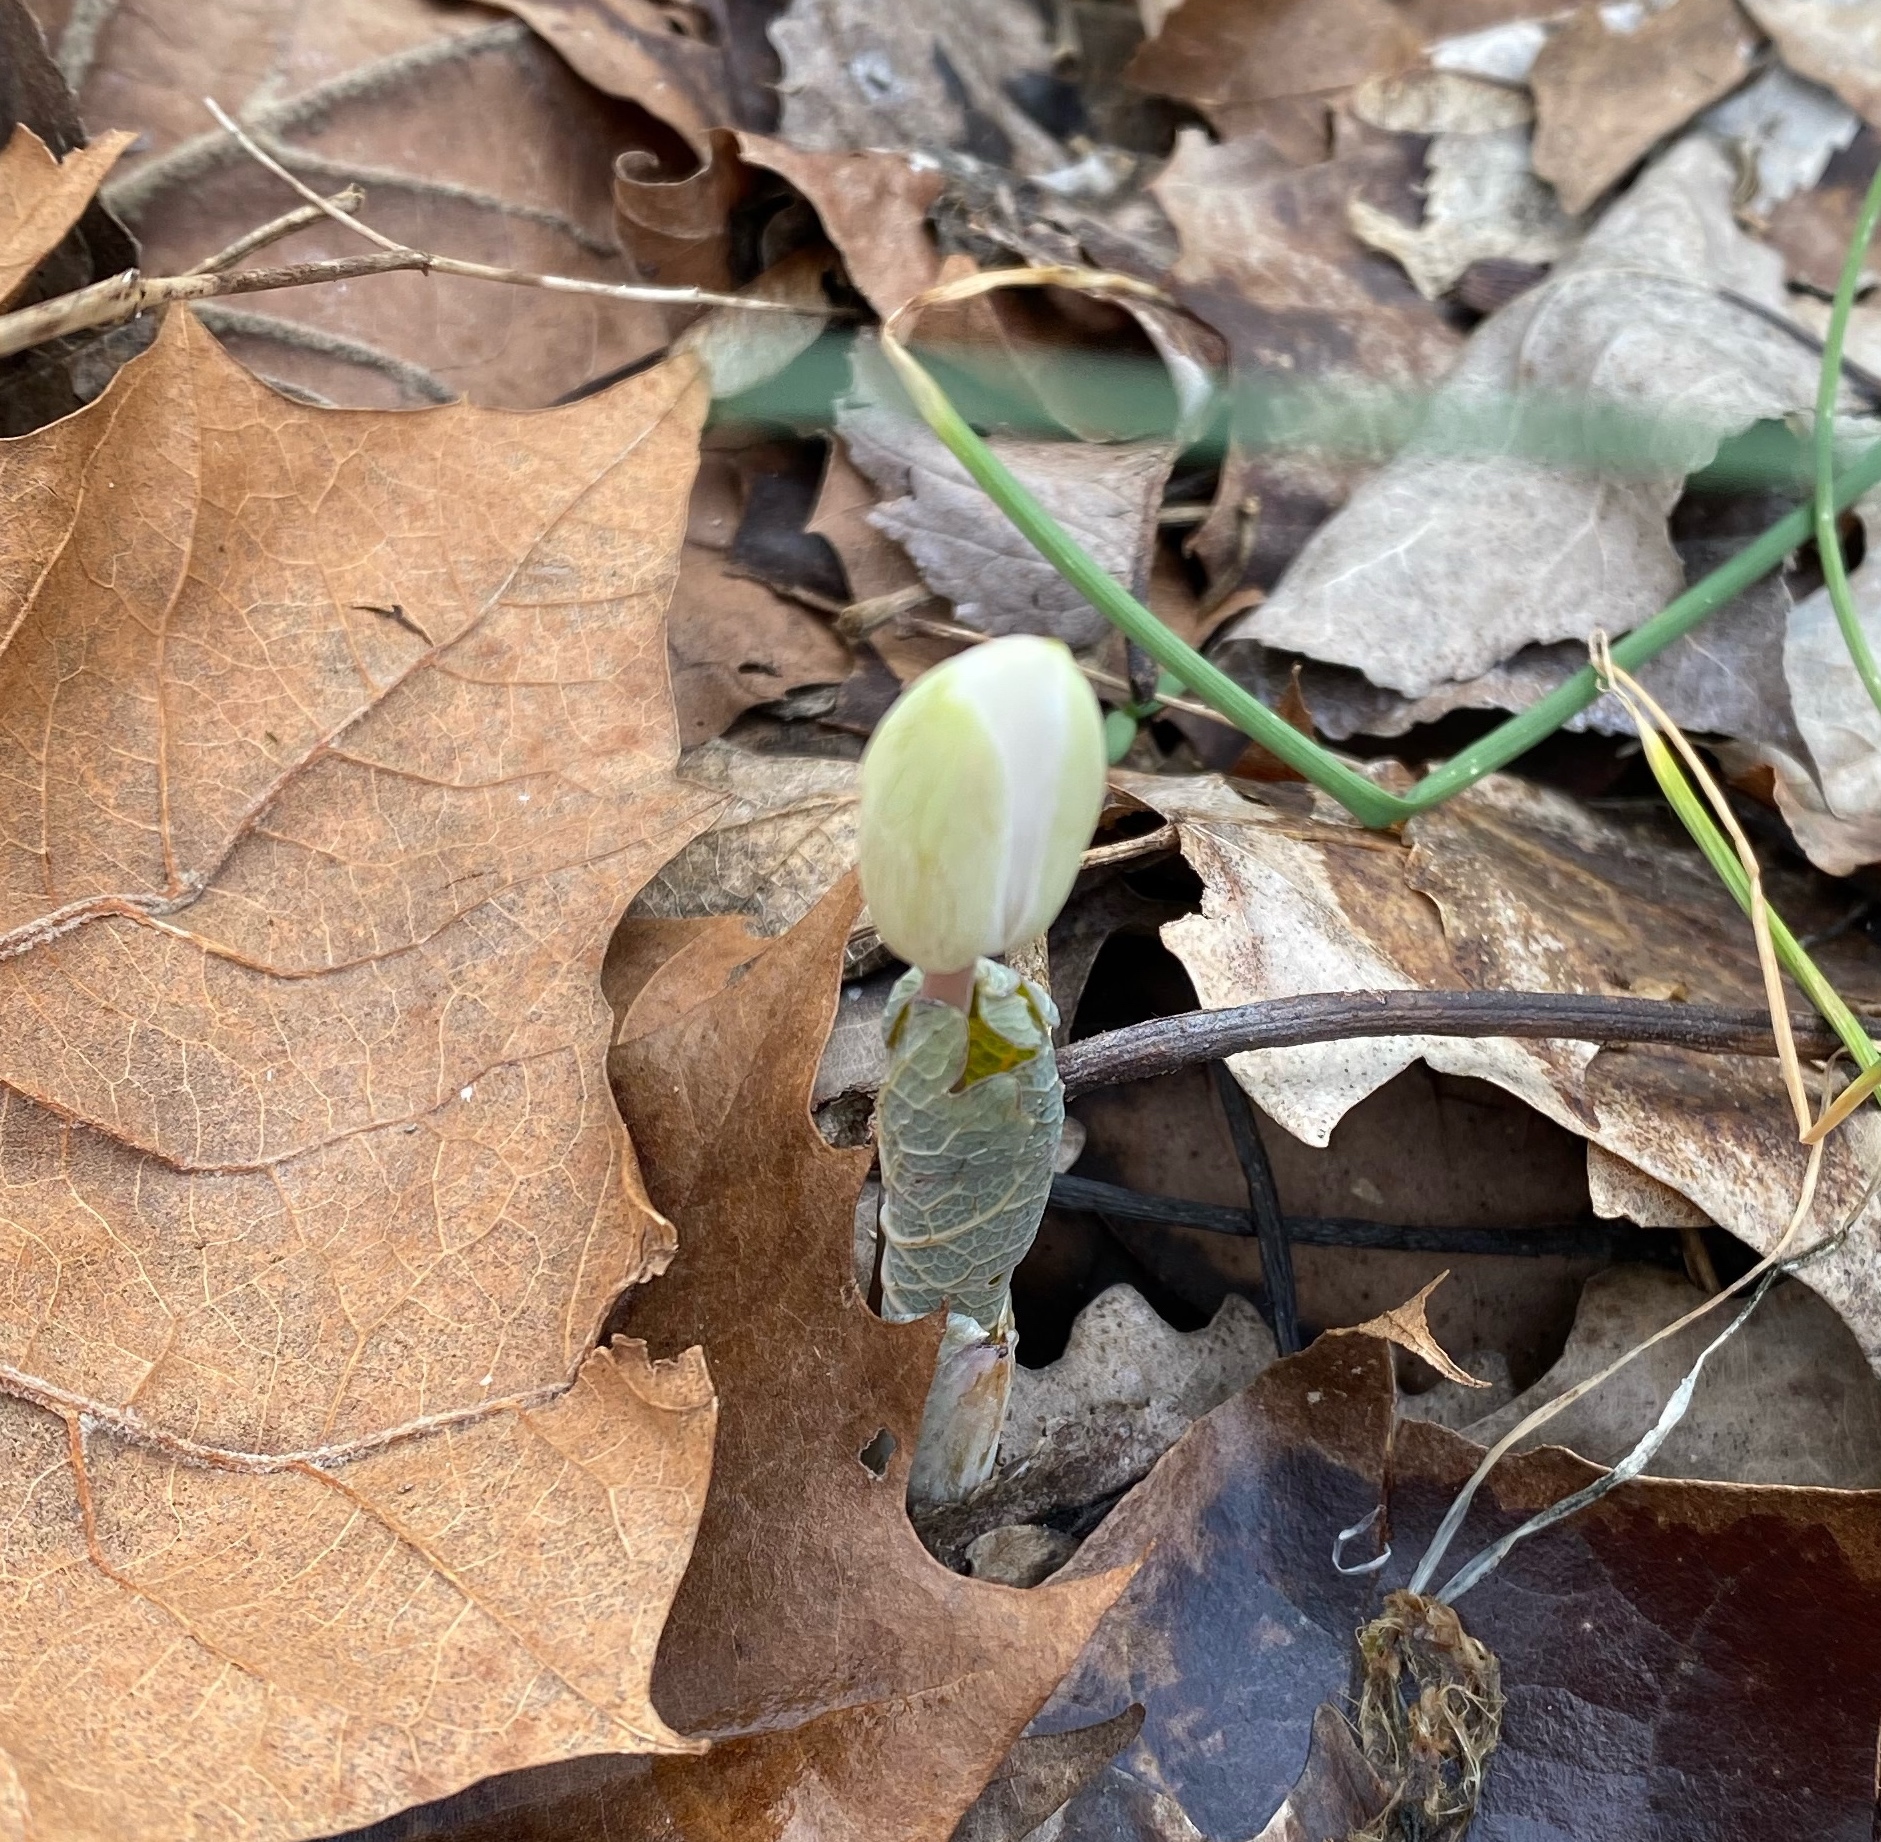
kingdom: Plantae
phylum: Tracheophyta
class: Magnoliopsida
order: Ranunculales
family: Papaveraceae
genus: Sanguinaria
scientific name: Sanguinaria canadensis
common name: Bloodroot
